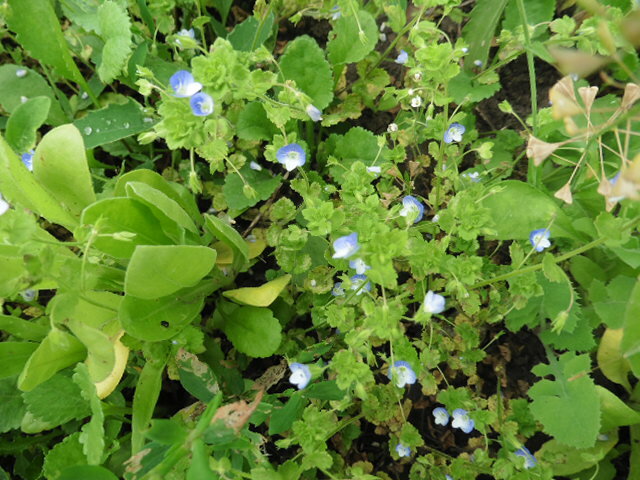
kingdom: Plantae
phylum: Tracheophyta
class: Magnoliopsida
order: Lamiales
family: Plantaginaceae
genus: Veronica
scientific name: Veronica persica
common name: Common field-speedwell
